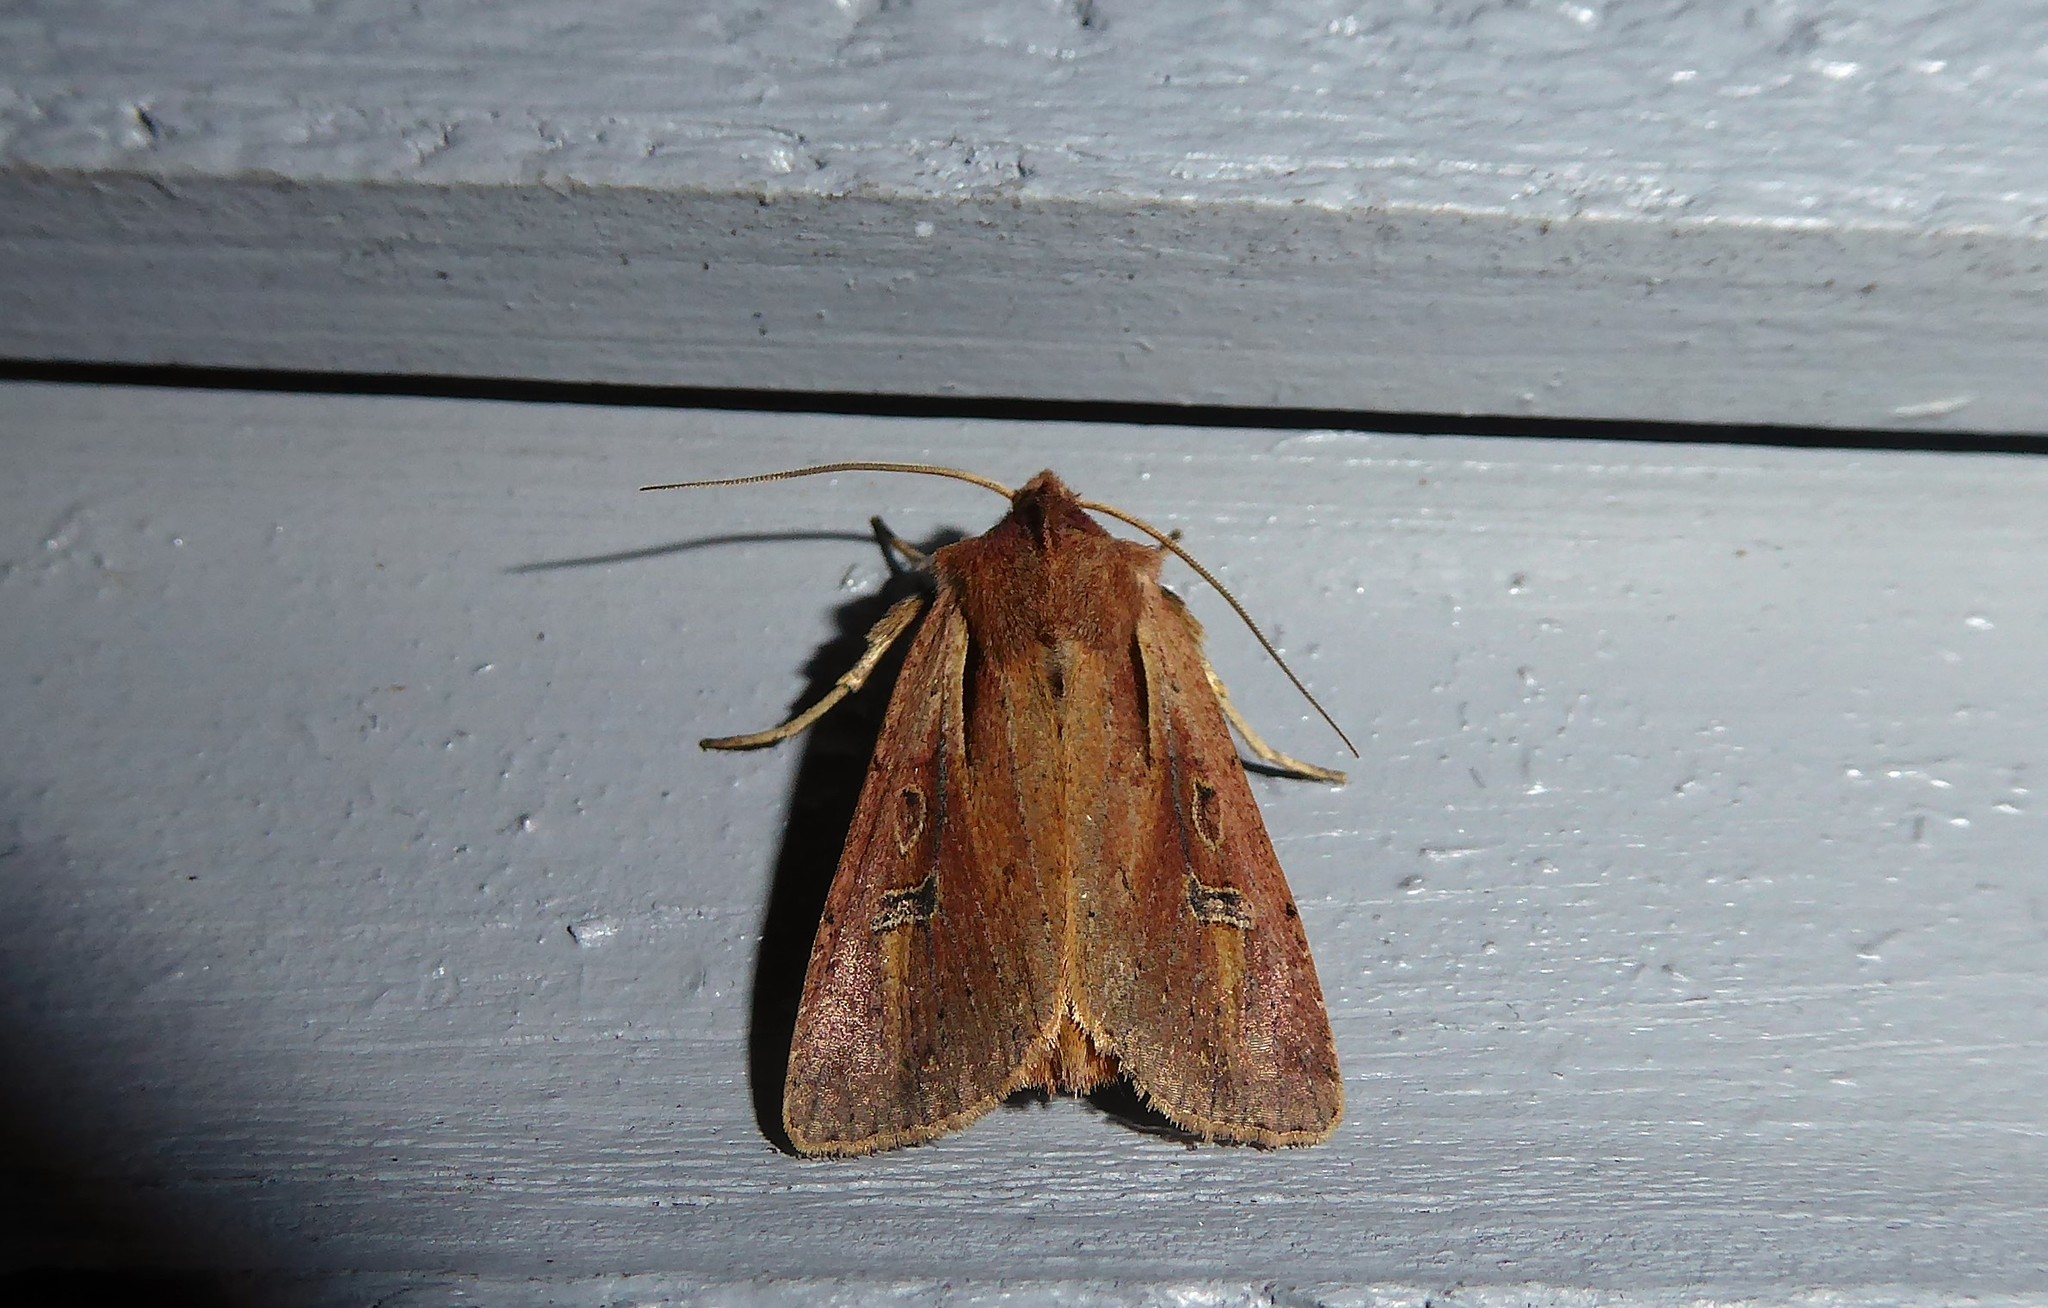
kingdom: Animalia
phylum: Arthropoda
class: Insecta
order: Lepidoptera
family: Noctuidae
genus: Ichneutica
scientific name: Ichneutica atristriga
